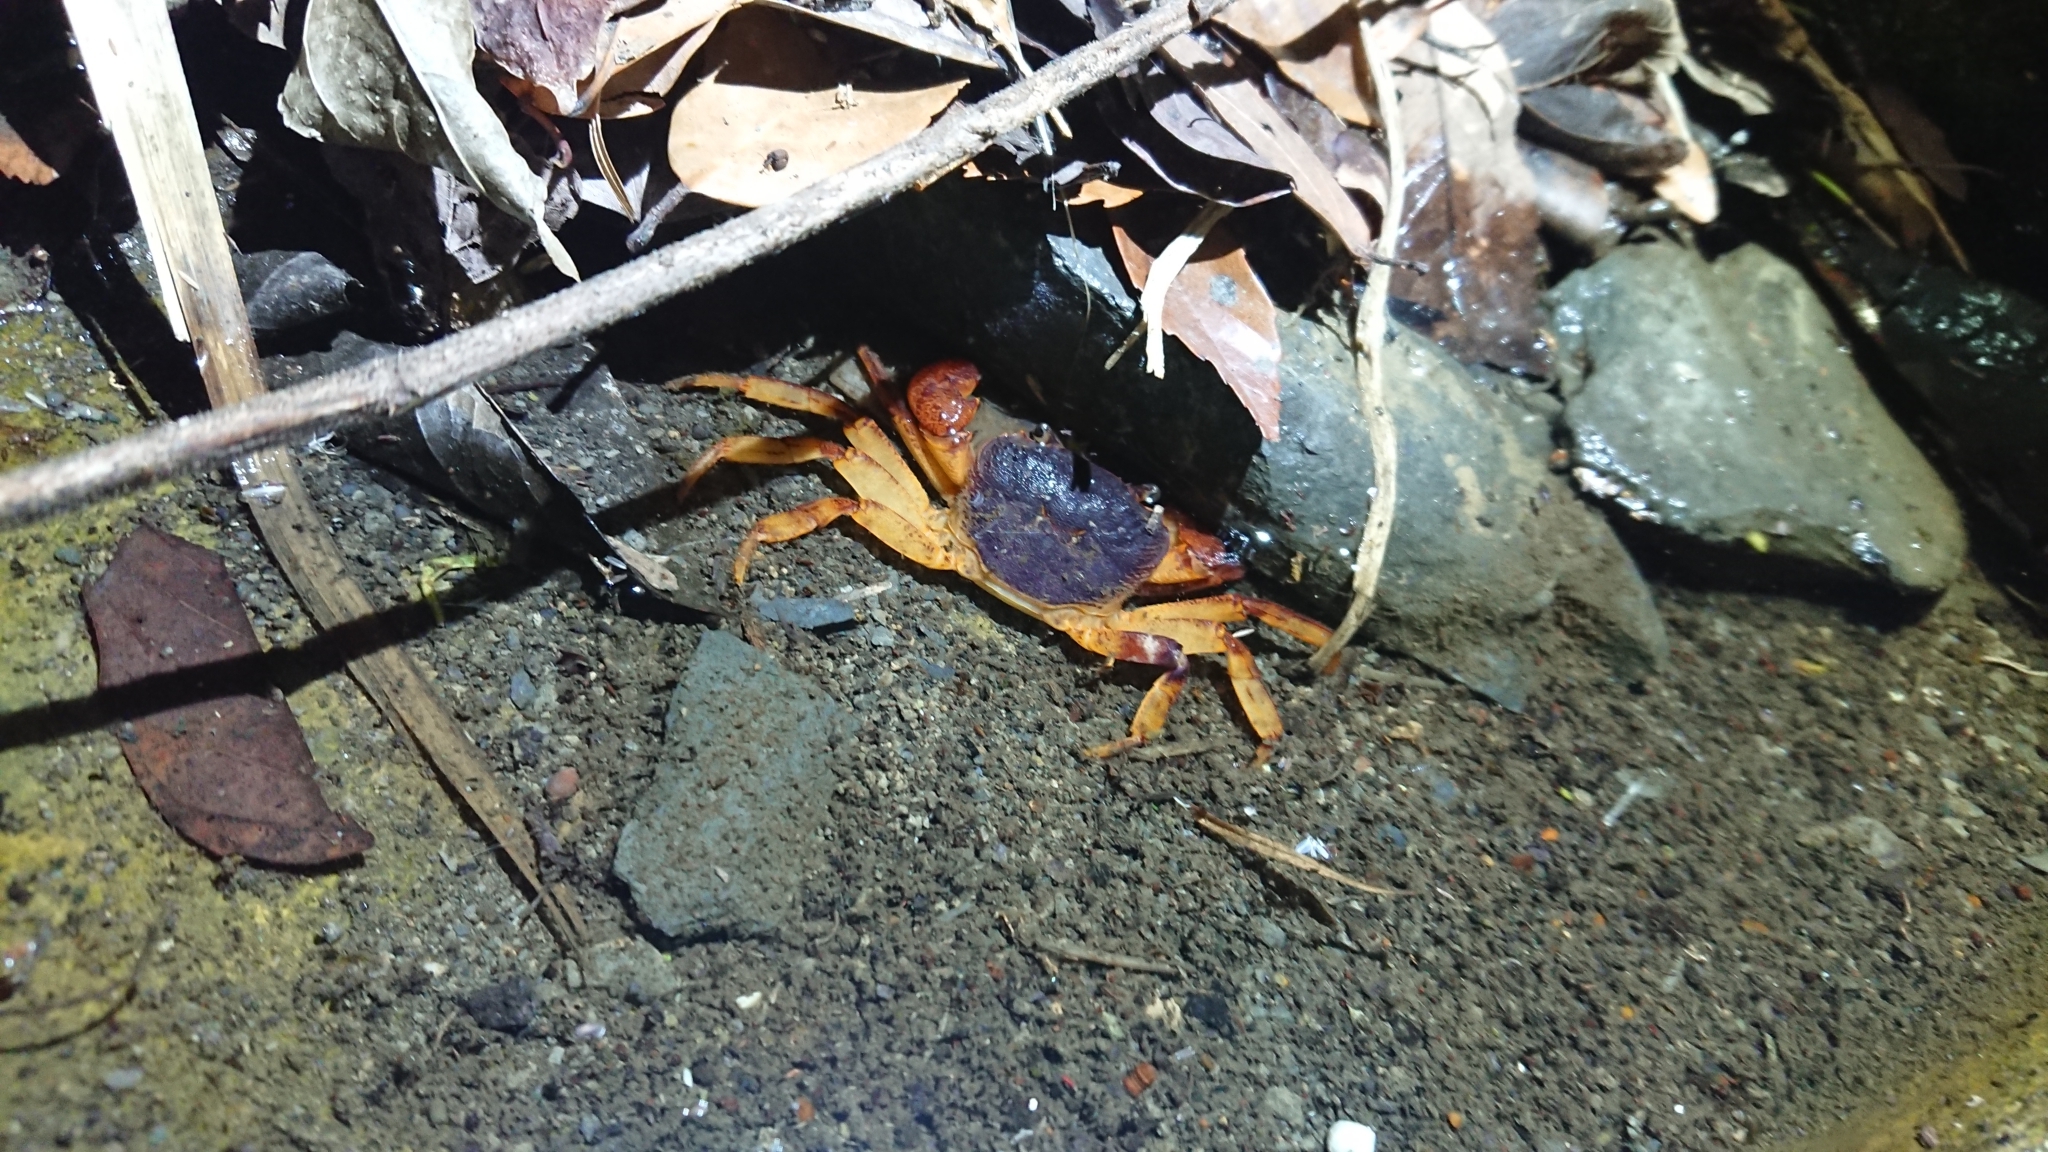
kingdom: Animalia
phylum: Arthropoda
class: Malacostraca
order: Decapoda
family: Potamidae
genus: Candidiopotamon
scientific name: Candidiopotamon rathbuni
